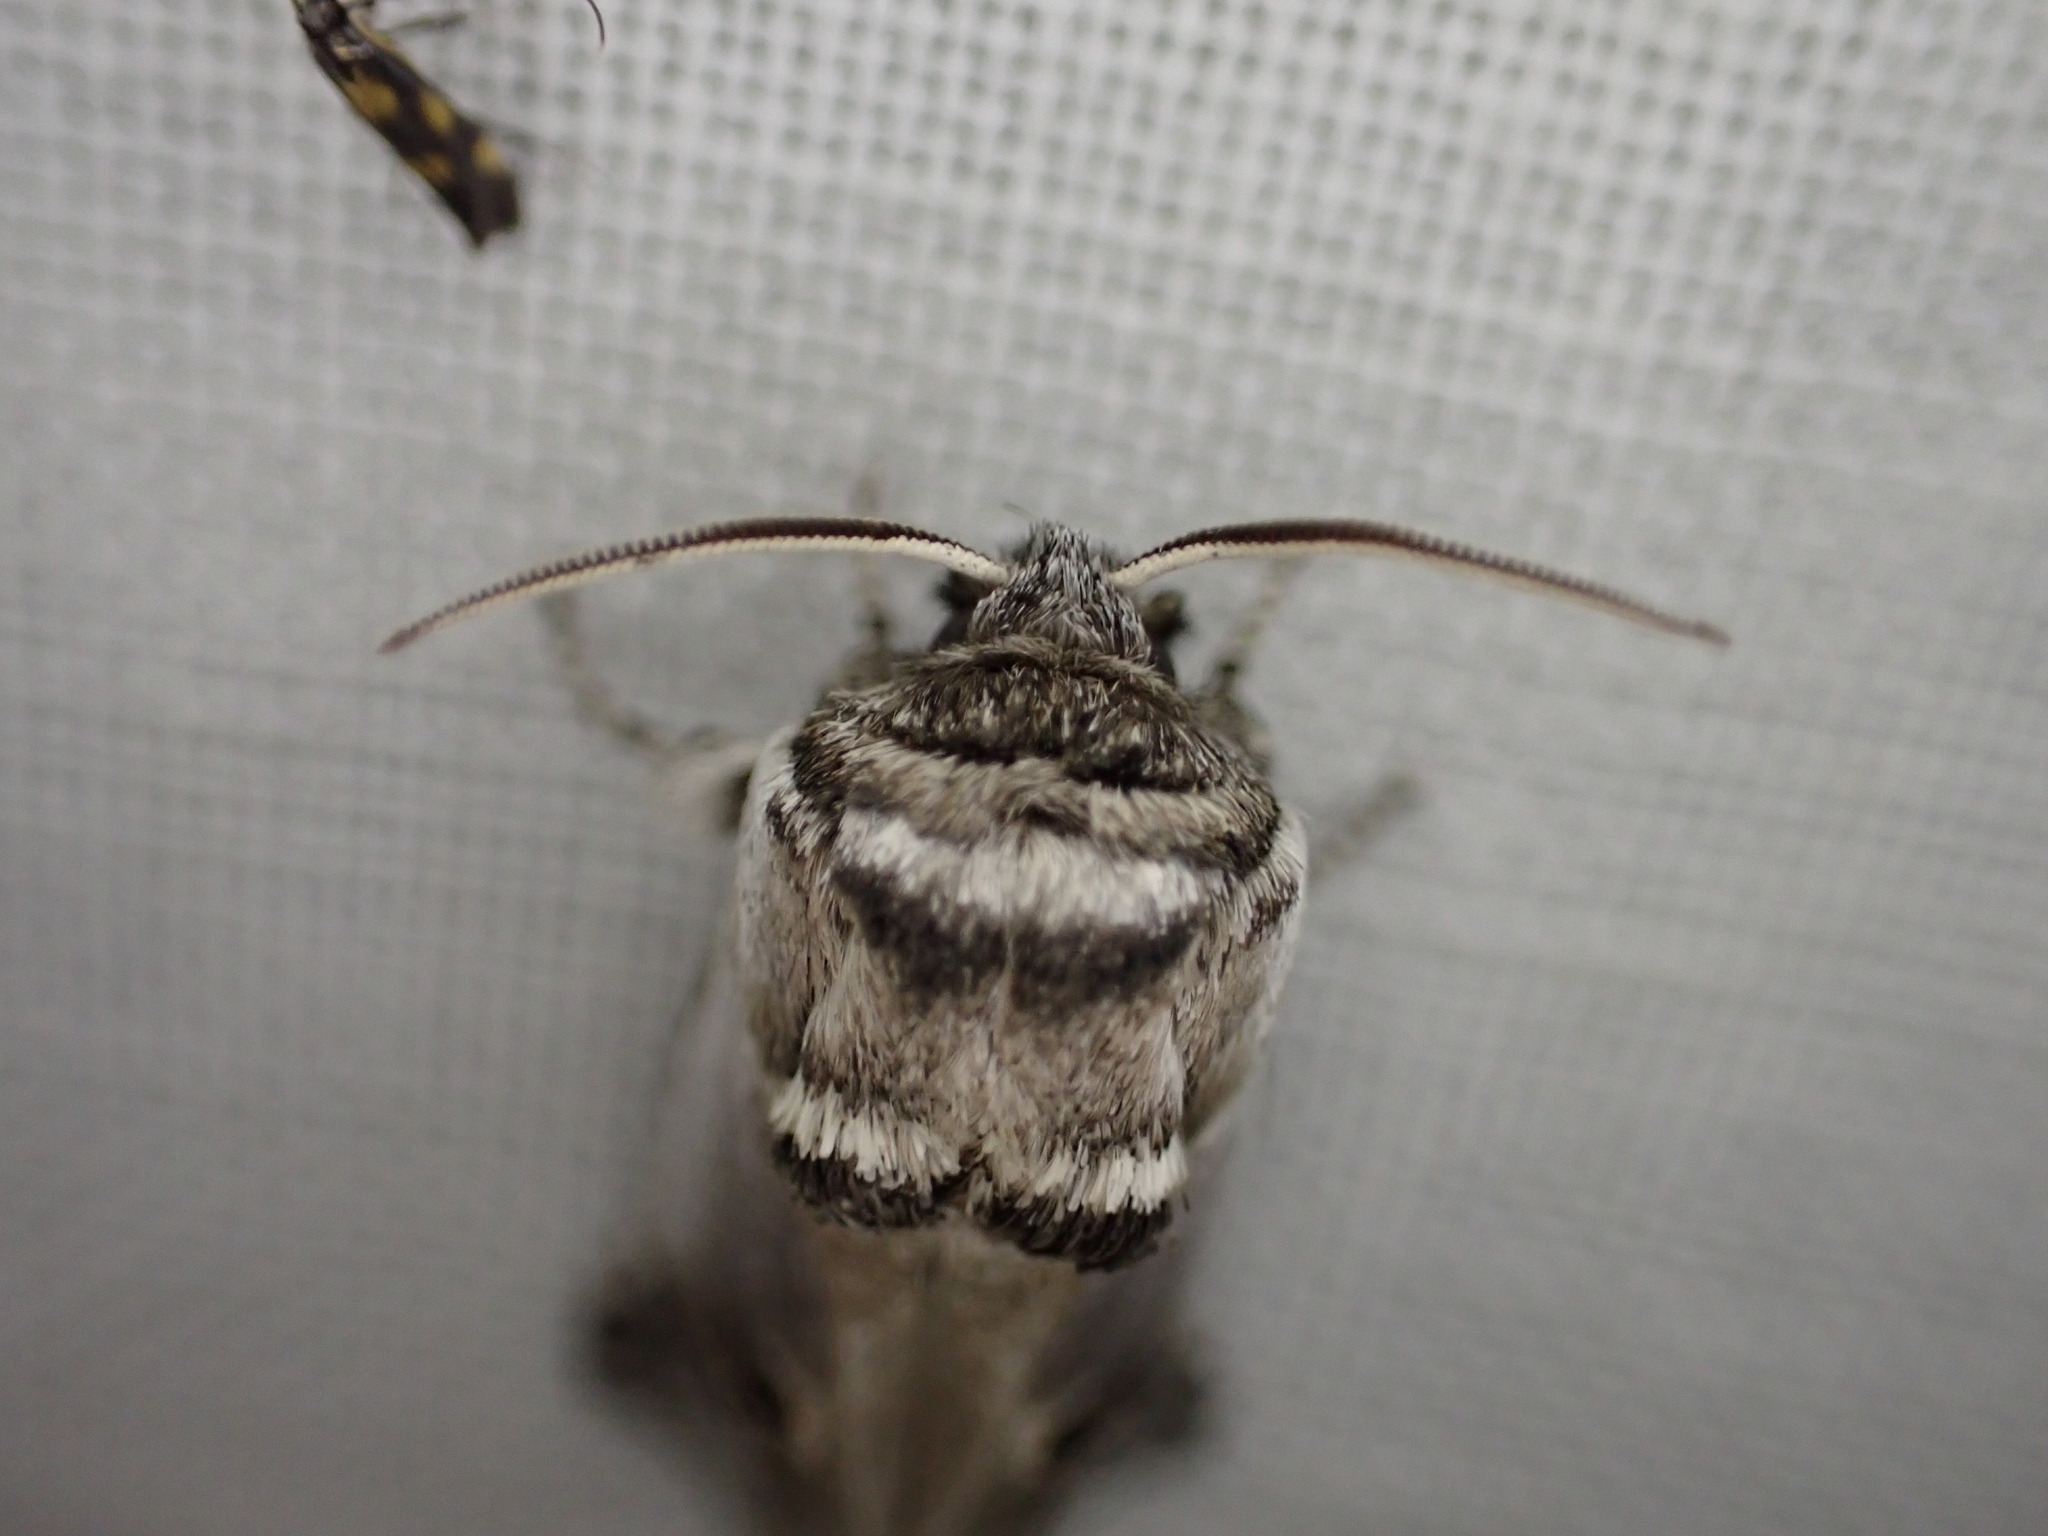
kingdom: Animalia
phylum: Arthropoda
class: Insecta
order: Lepidoptera
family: Cossidae
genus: Parahypopta
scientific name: Parahypopta caestrum
